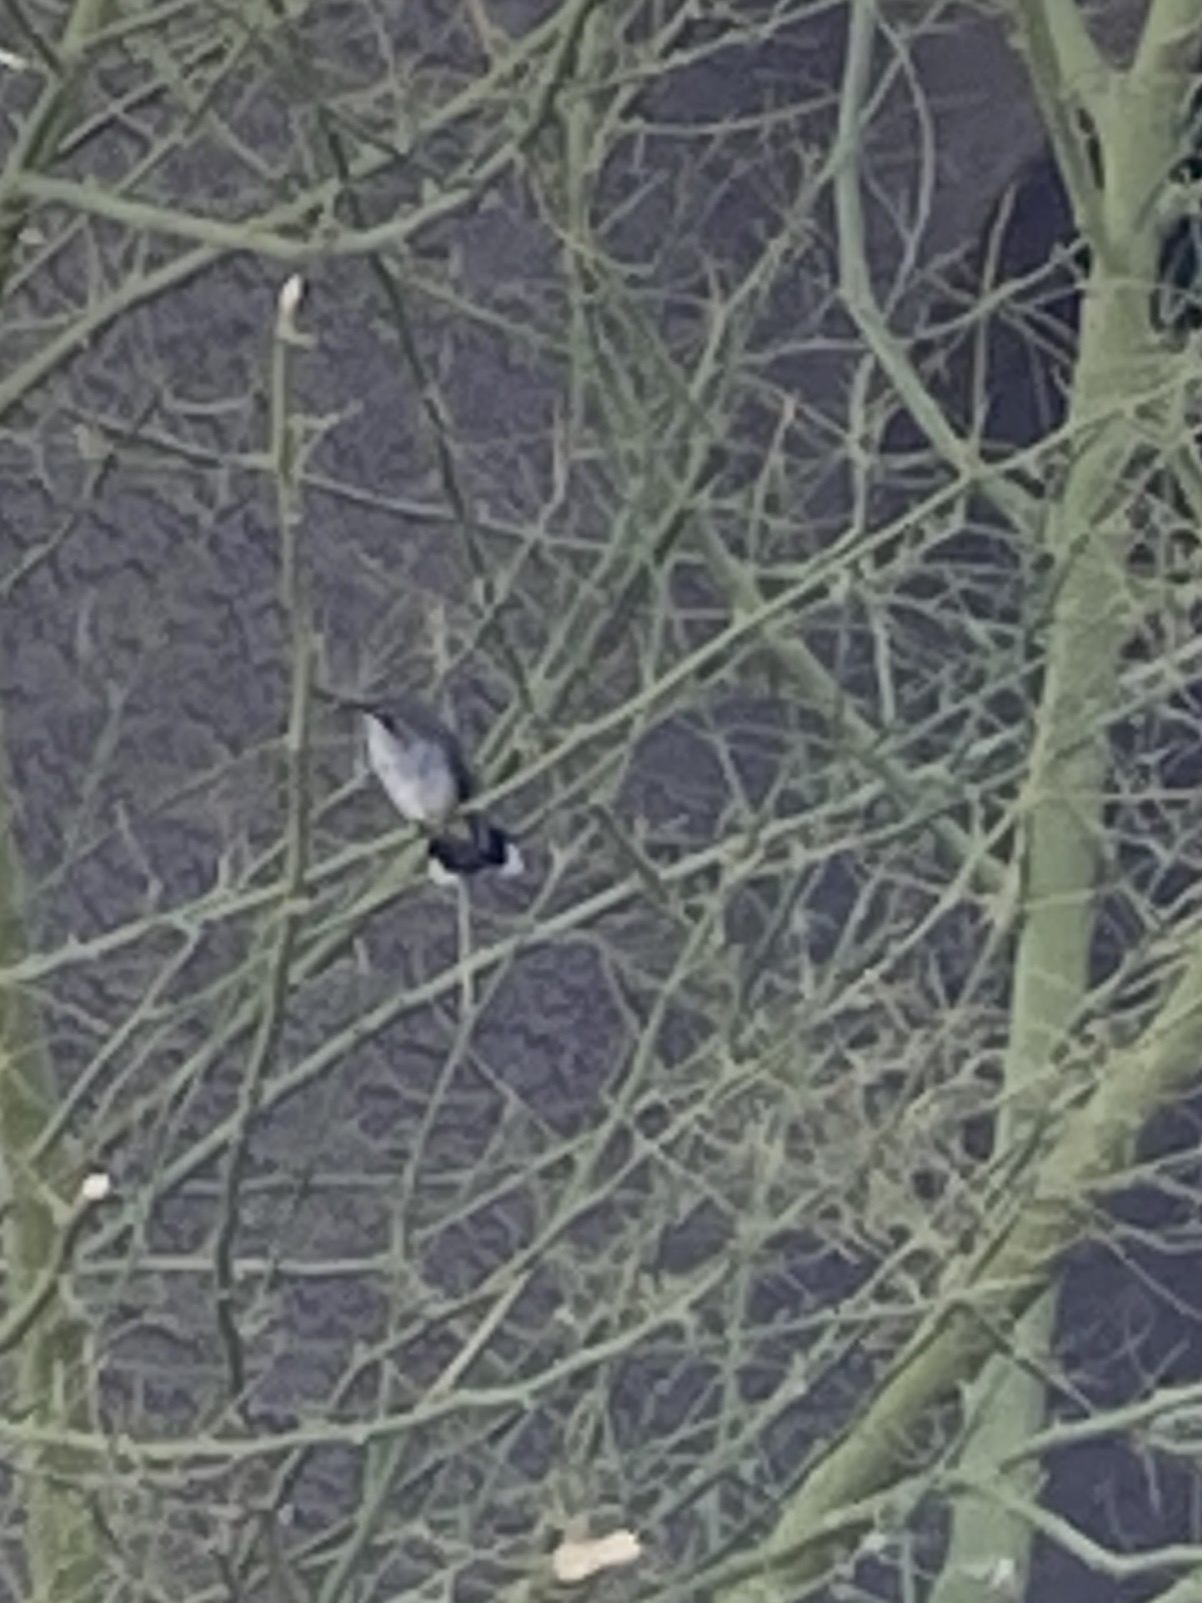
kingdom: Animalia
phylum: Chordata
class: Aves
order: Apodiformes
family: Trochilidae
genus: Archilochus
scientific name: Archilochus alexandri
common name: Black-chinned hummingbird
